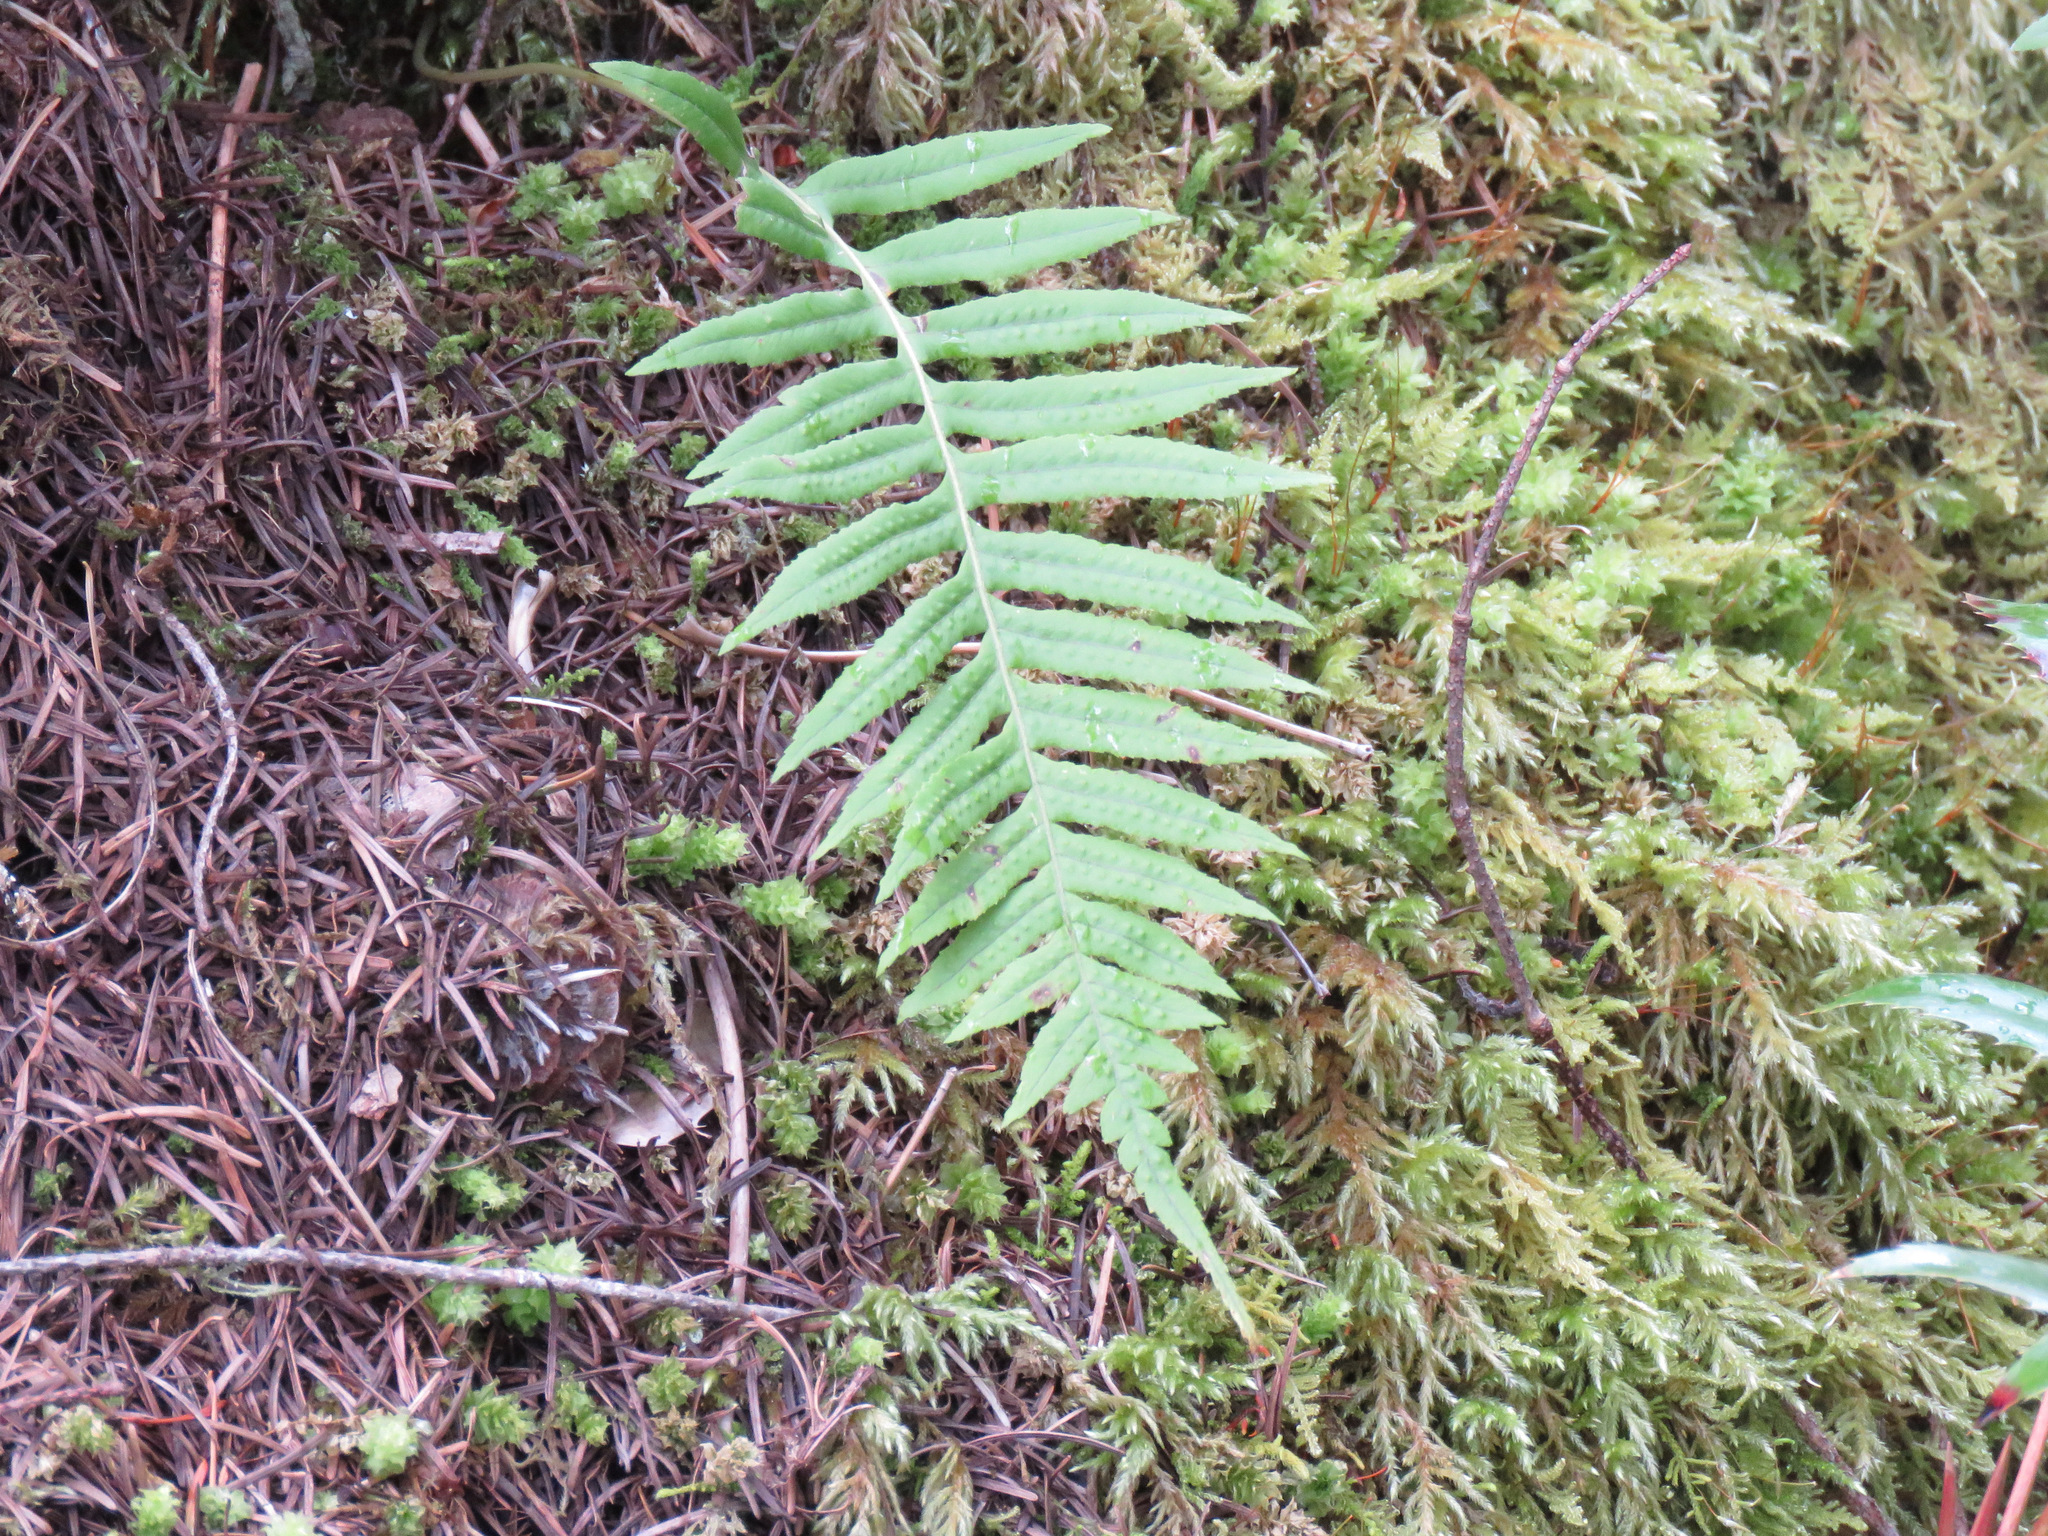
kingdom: Plantae
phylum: Tracheophyta
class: Polypodiopsida
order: Polypodiales
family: Polypodiaceae
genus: Polypodium
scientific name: Polypodium glycyrrhiza
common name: Licorice fern
